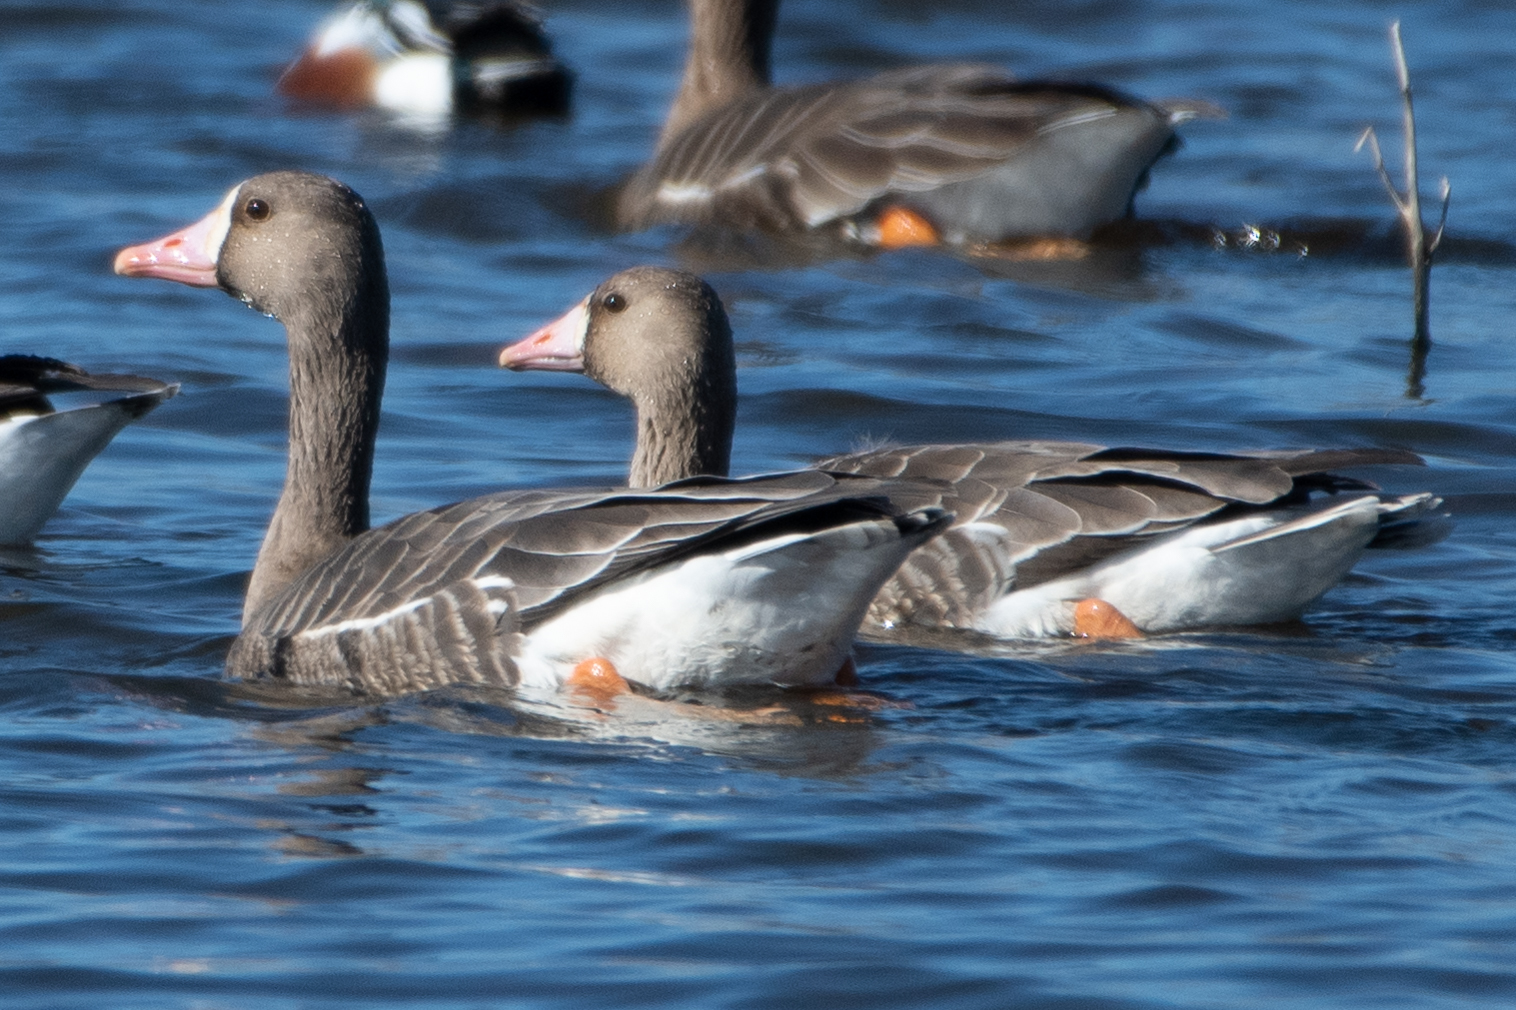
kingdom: Animalia
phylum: Chordata
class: Aves
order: Anseriformes
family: Anatidae
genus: Anser
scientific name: Anser albifrons
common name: Greater white-fronted goose
